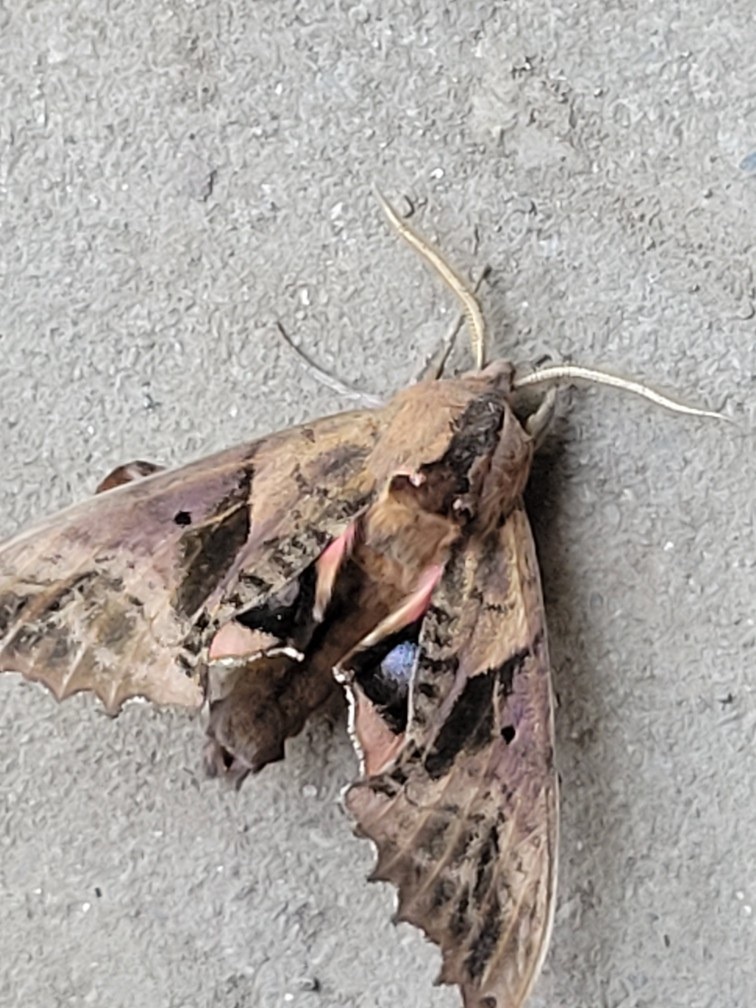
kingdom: Animalia
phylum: Arthropoda
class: Insecta
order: Lepidoptera
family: Sphingidae
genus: Paonias
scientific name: Paonias excaecata
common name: Blind-eyed sphinx
